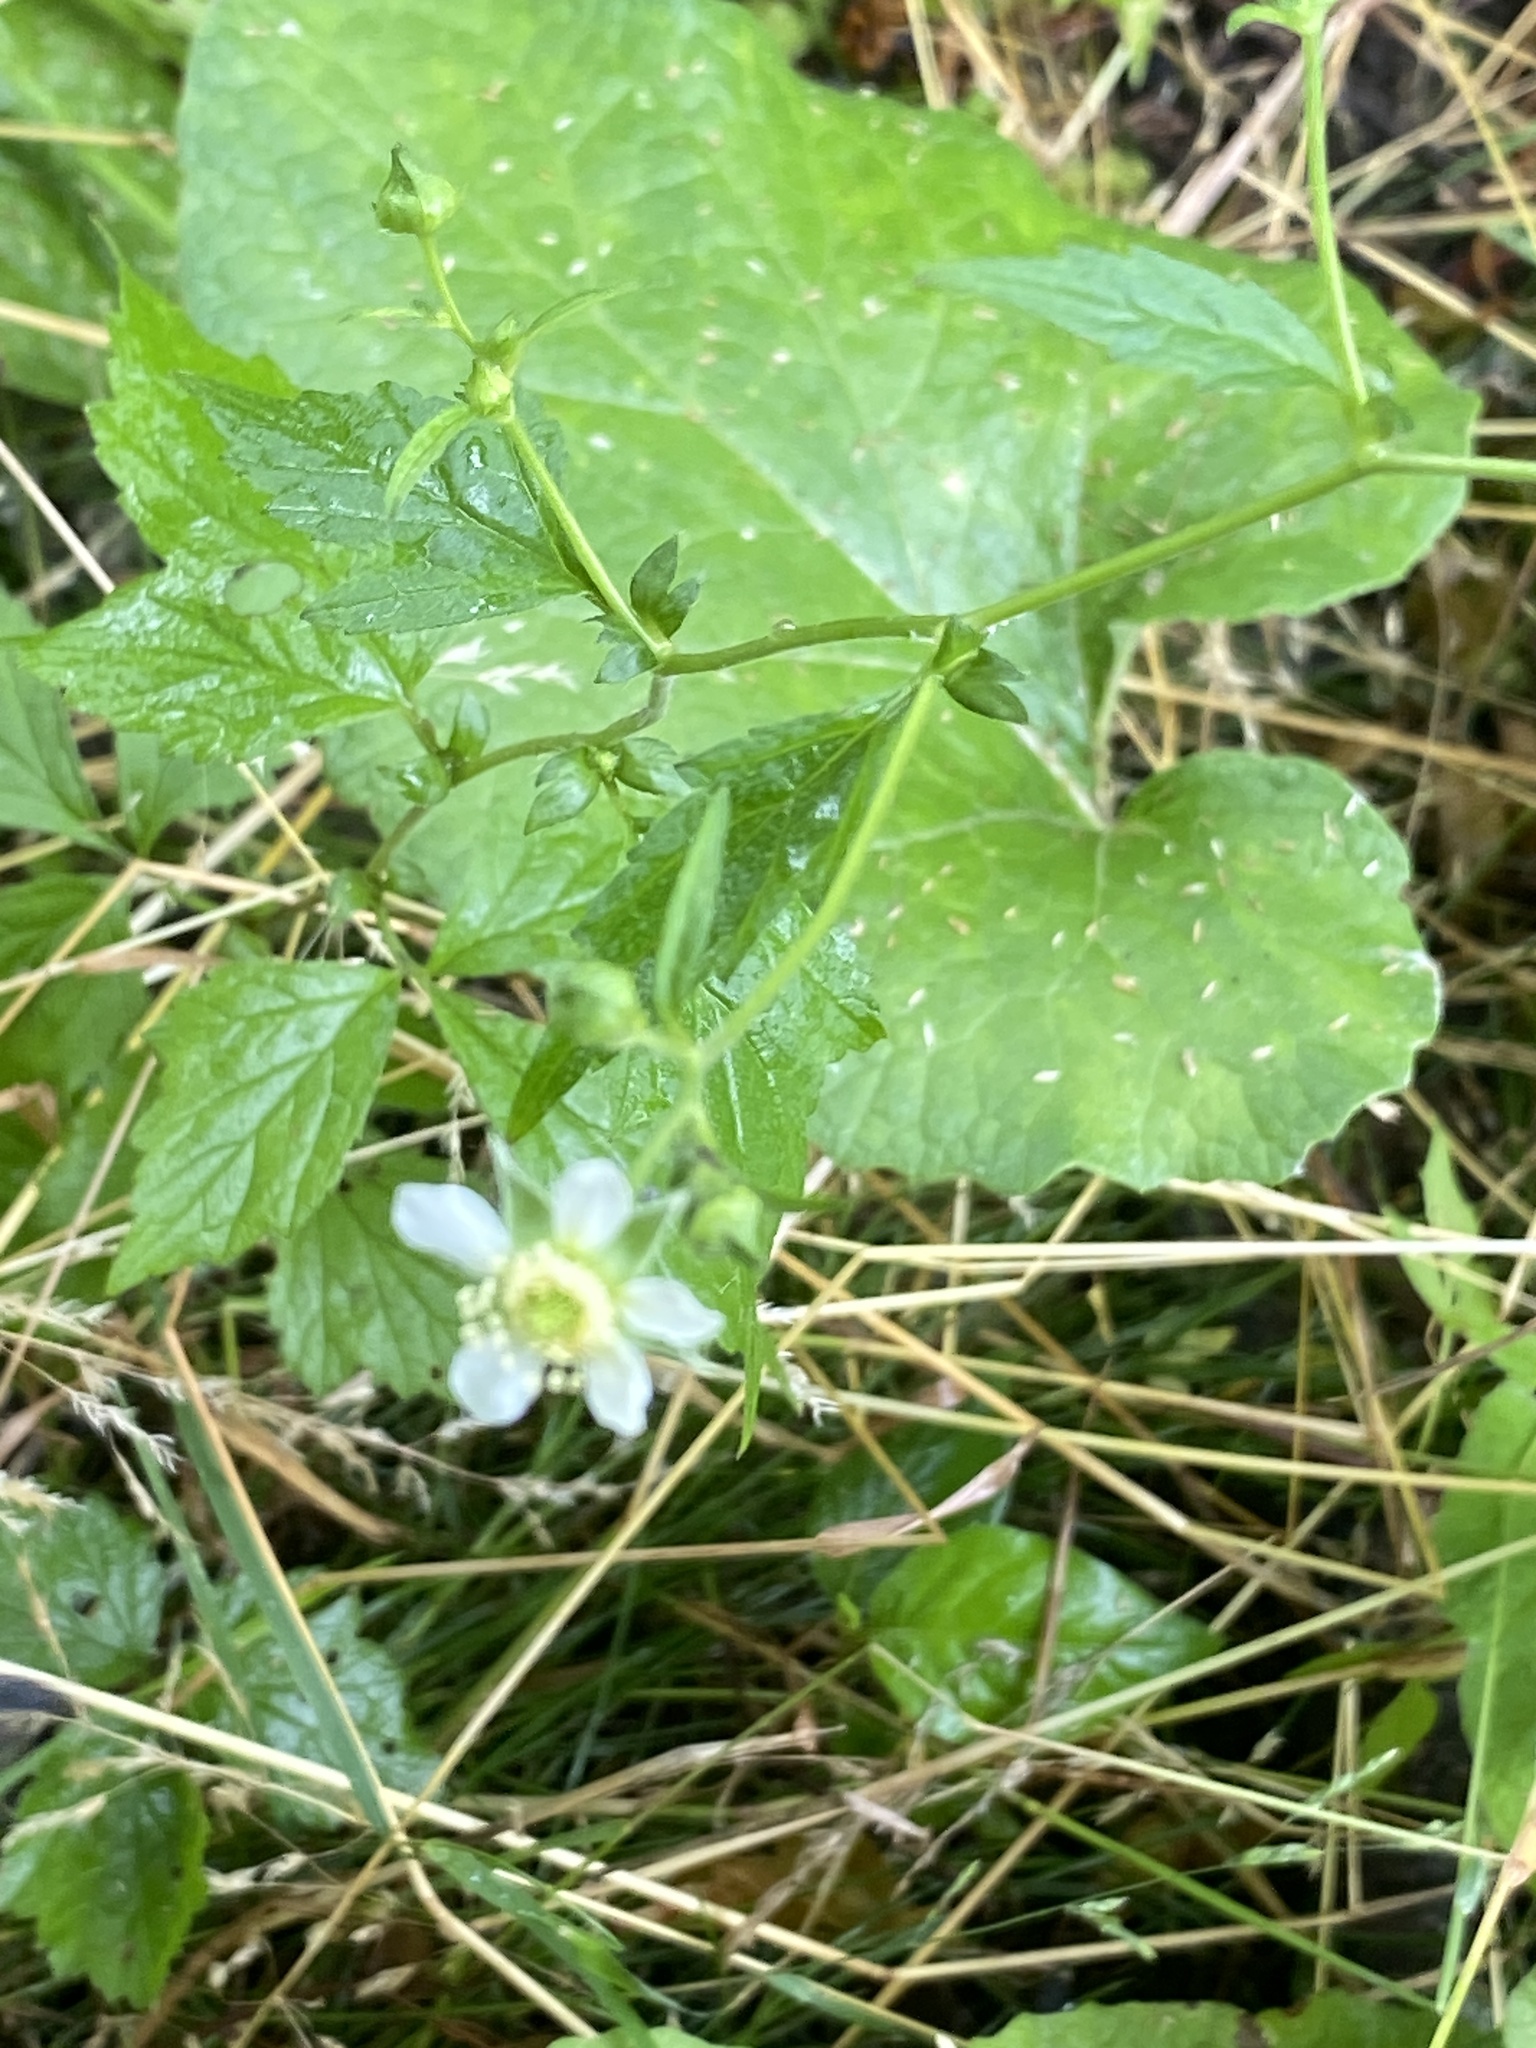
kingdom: Plantae
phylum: Tracheophyta
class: Magnoliopsida
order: Rosales
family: Rosaceae
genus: Geum
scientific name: Geum canadense
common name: White avens
